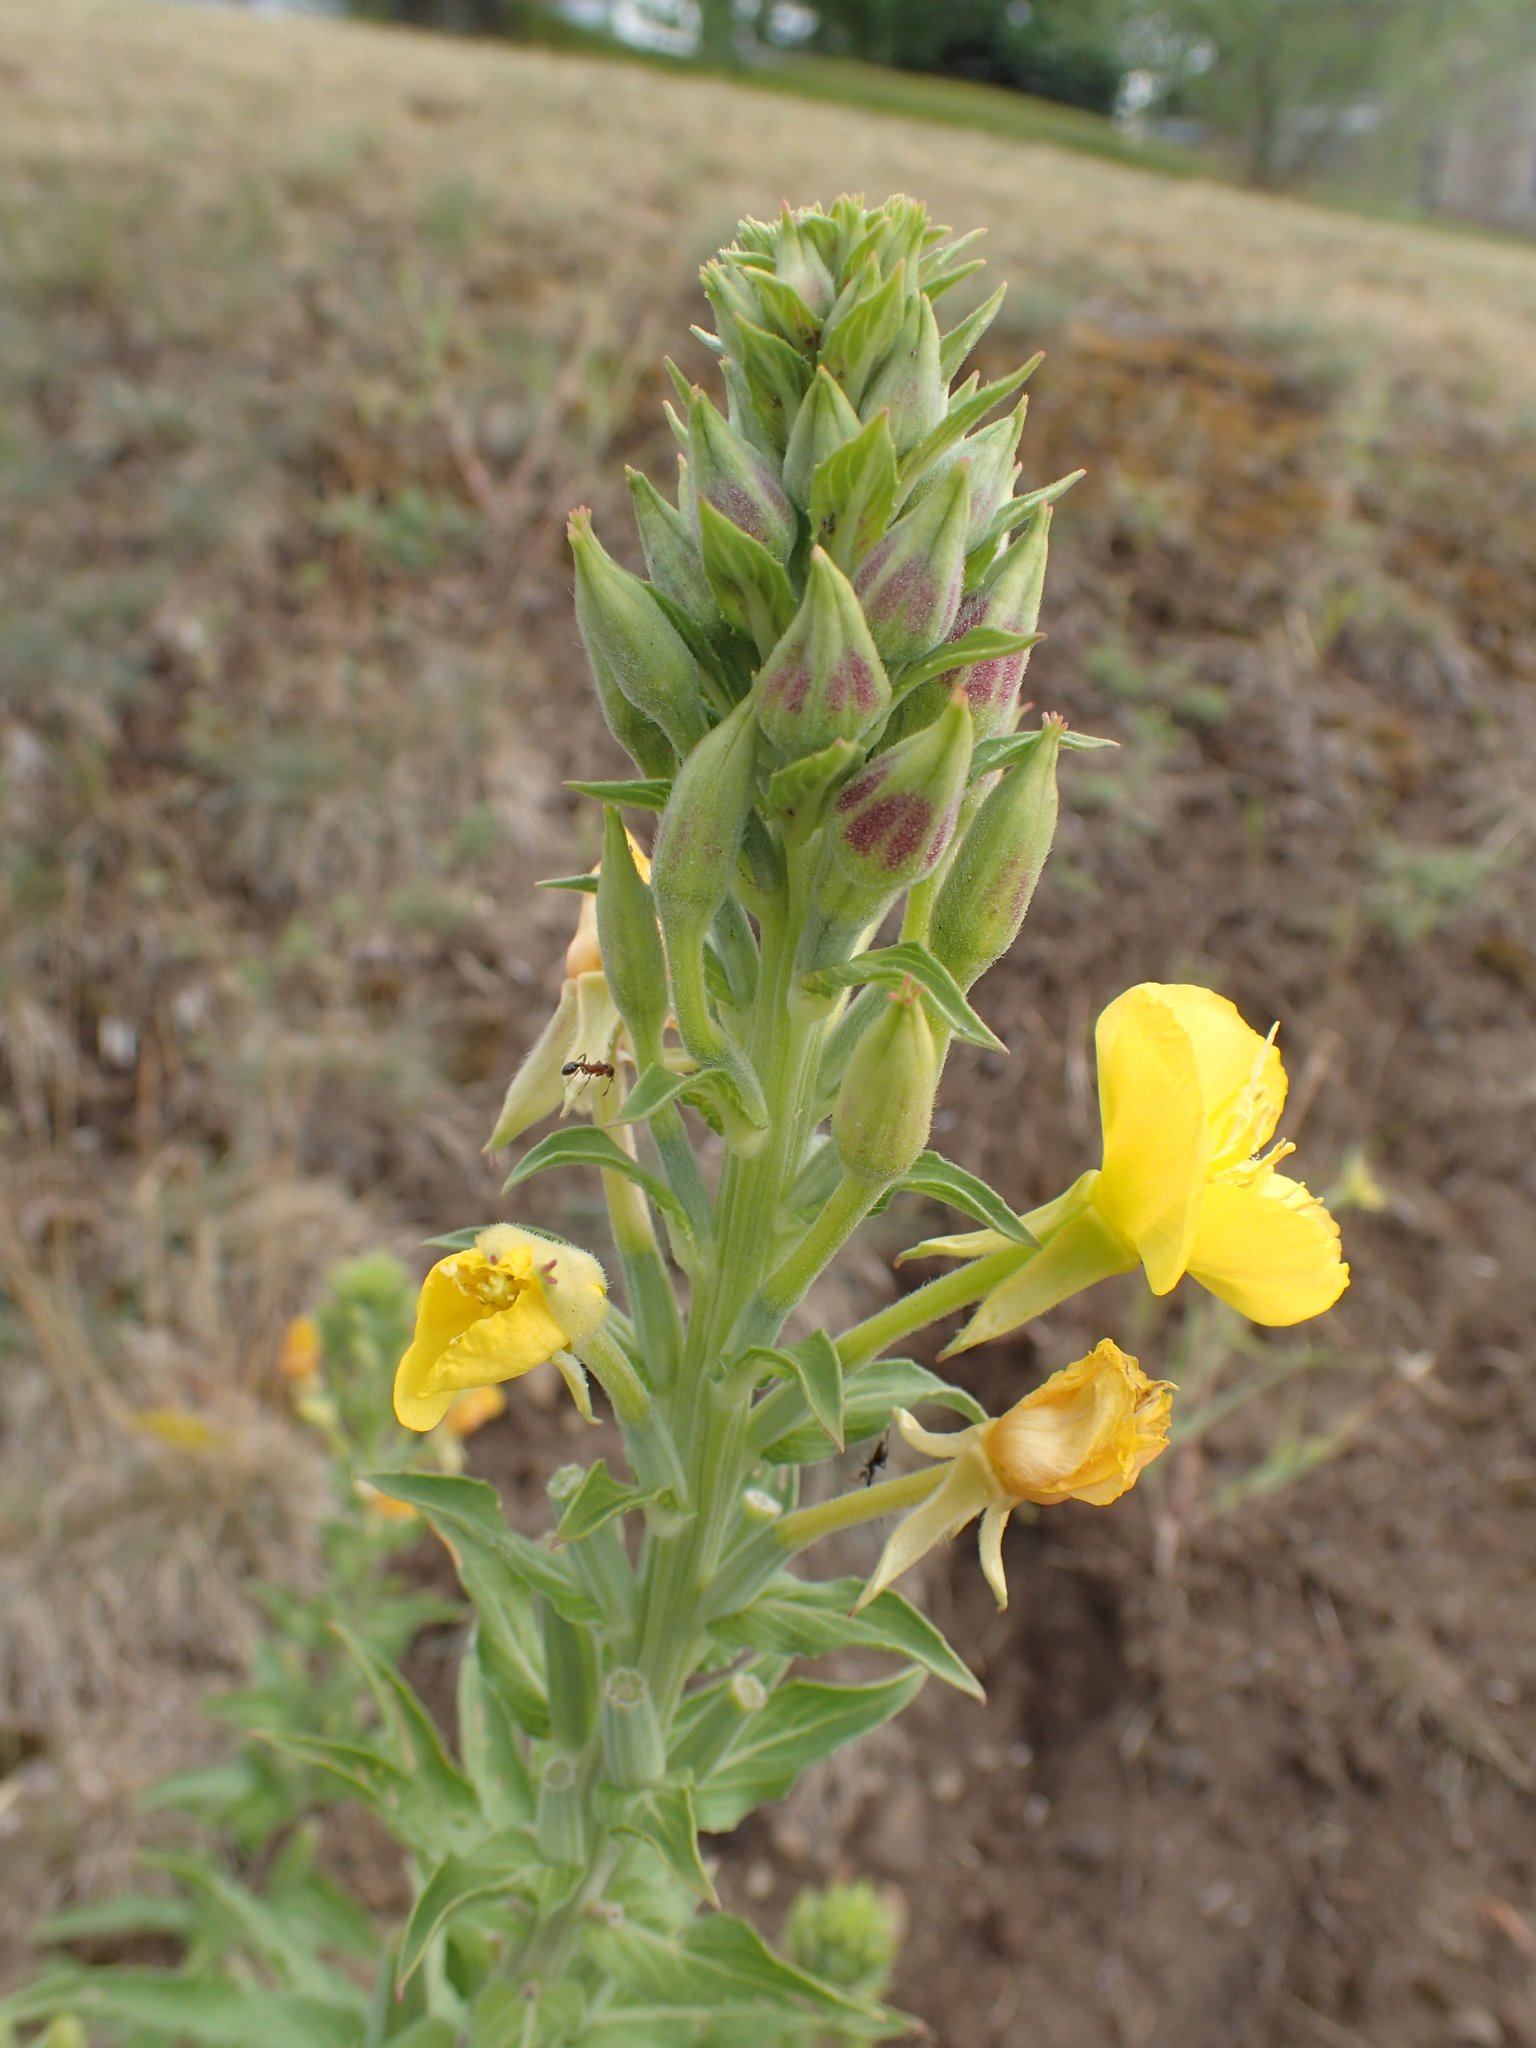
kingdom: Plantae
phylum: Tracheophyta
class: Magnoliopsida
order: Myrtales
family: Onagraceae
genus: Oenothera
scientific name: Oenothera biennis
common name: Common evening-primrose
